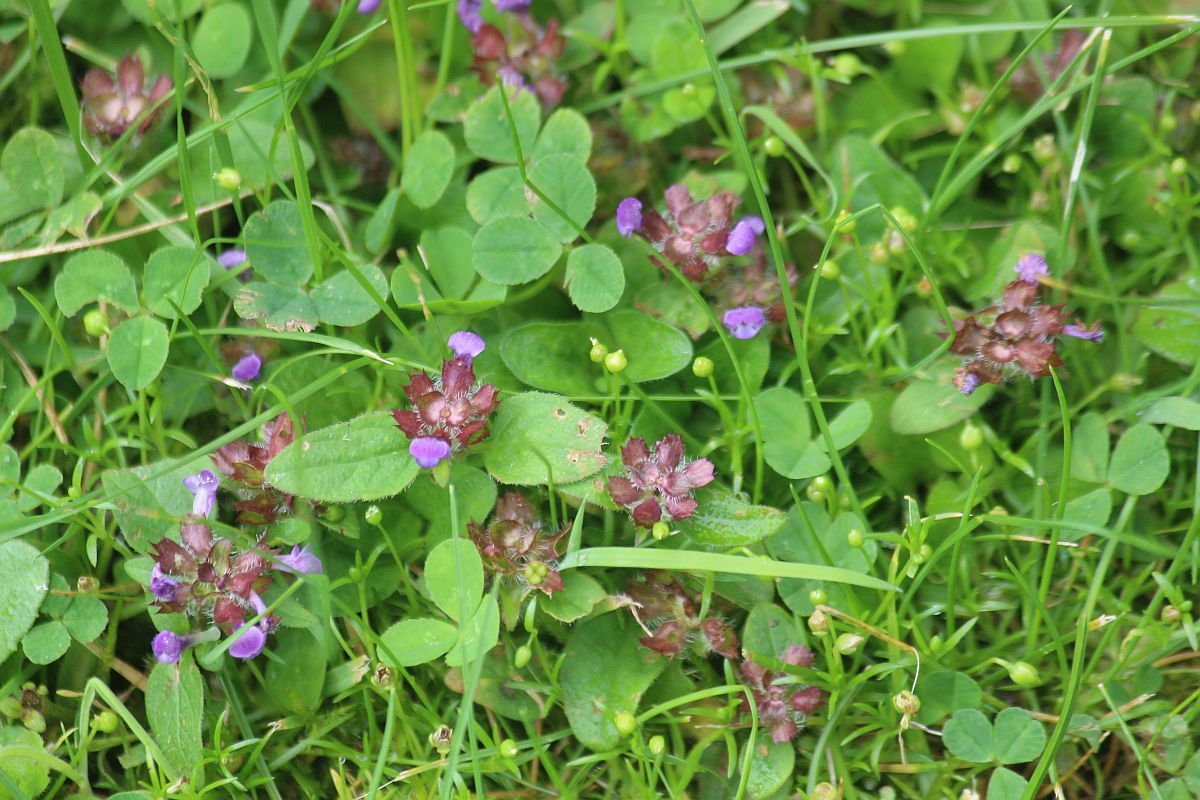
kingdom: Plantae
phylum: Tracheophyta
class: Magnoliopsida
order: Lamiales
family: Lamiaceae
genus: Prunella
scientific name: Prunella vulgaris
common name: Heal-all
